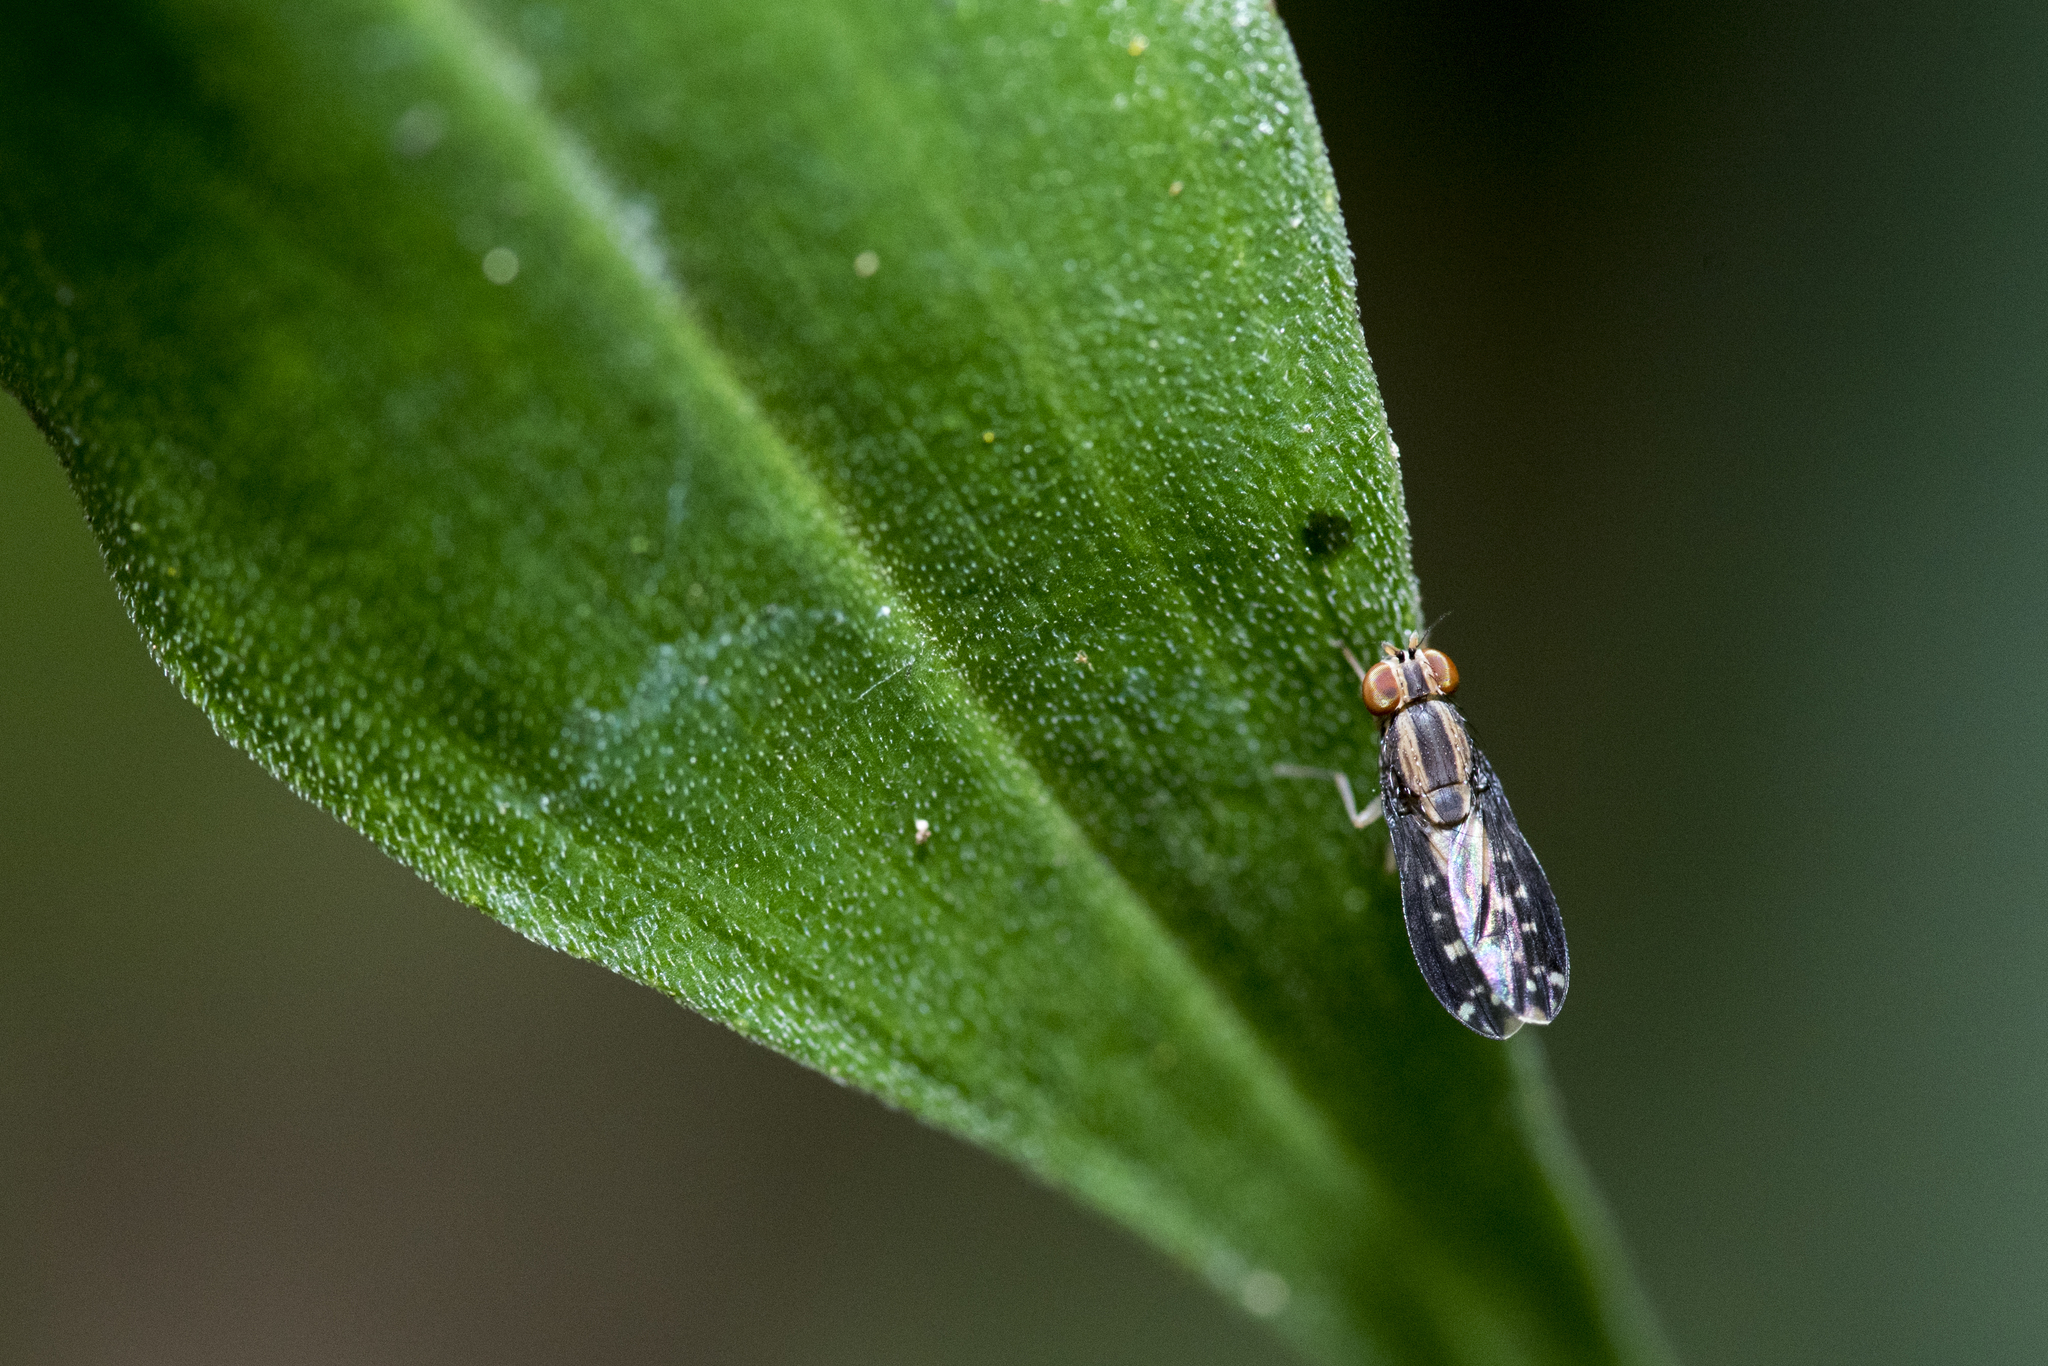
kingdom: Animalia
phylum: Arthropoda
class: Insecta
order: Diptera
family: Lauxaniidae
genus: Homoneura
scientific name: Homoneura quinquevittata
